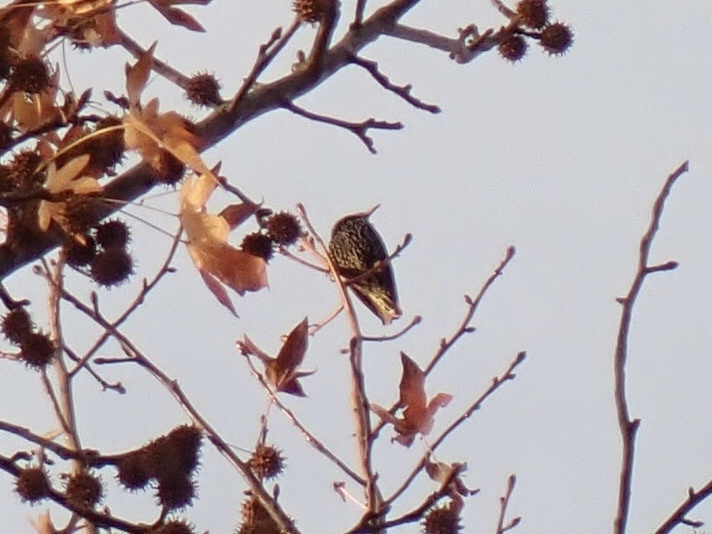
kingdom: Animalia
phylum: Chordata
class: Aves
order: Passeriformes
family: Sturnidae
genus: Sturnus
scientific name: Sturnus vulgaris
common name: Common starling
